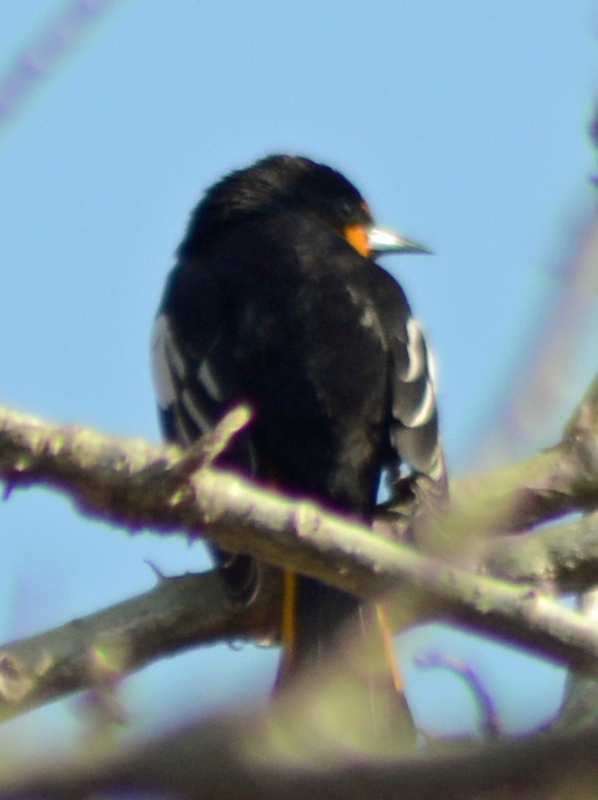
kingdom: Animalia
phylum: Chordata
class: Aves
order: Passeriformes
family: Icteridae
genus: Icterus
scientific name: Icterus abeillei
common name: Black-backed oriole
